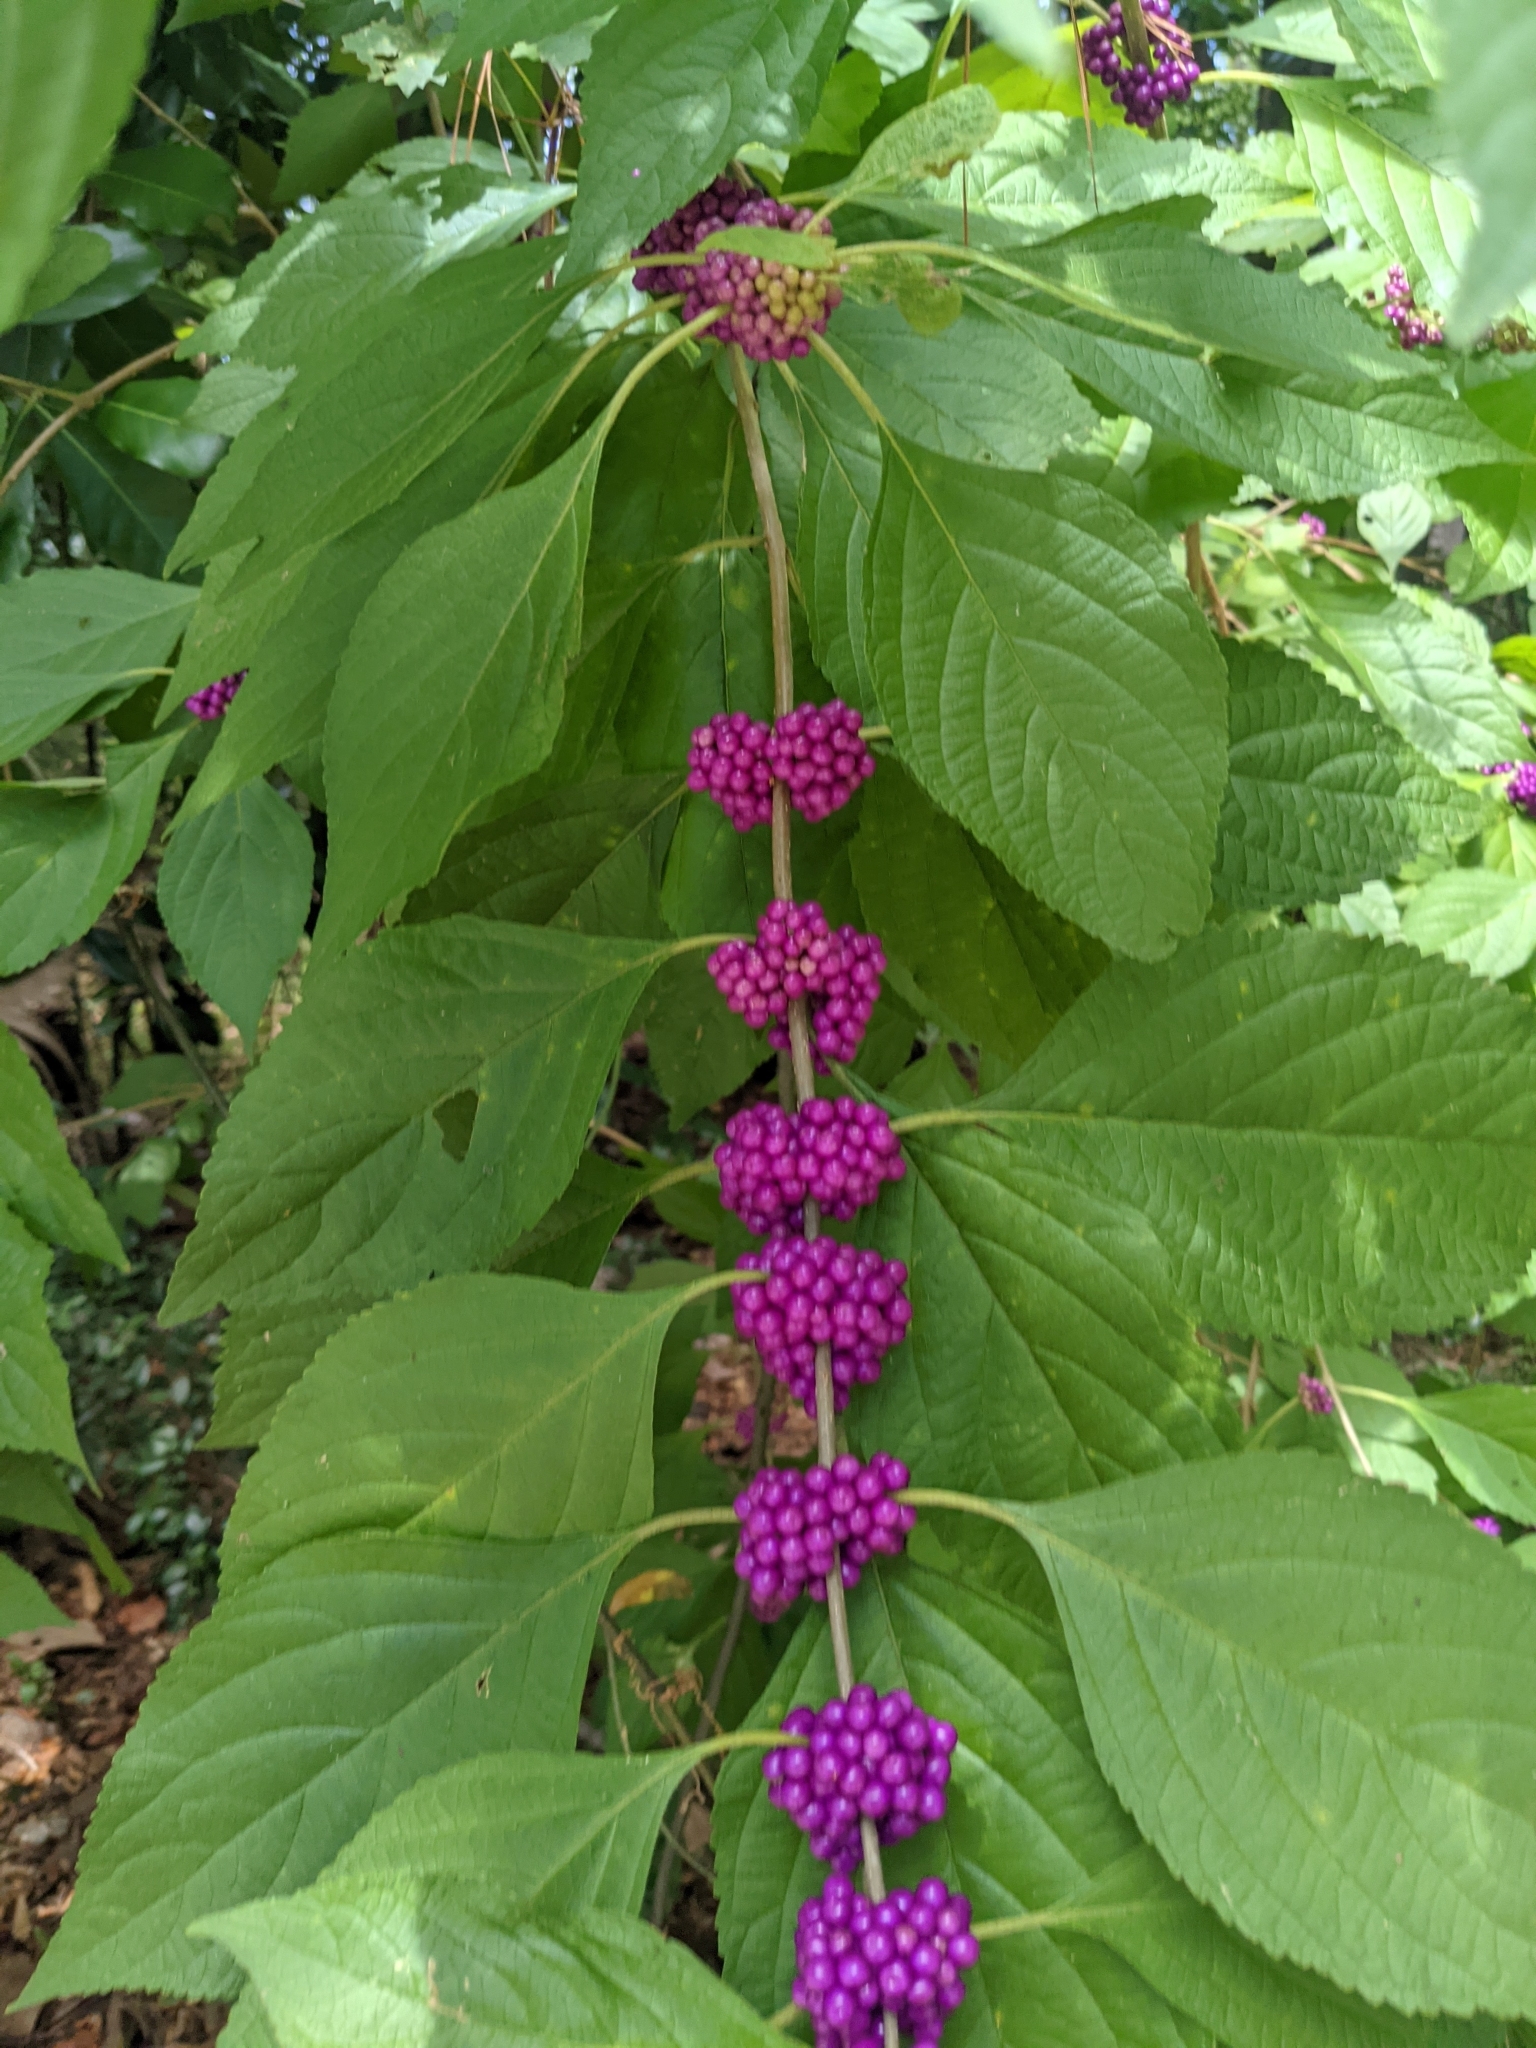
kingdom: Plantae
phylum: Tracheophyta
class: Magnoliopsida
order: Lamiales
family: Lamiaceae
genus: Callicarpa
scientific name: Callicarpa americana
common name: American beautyberry
